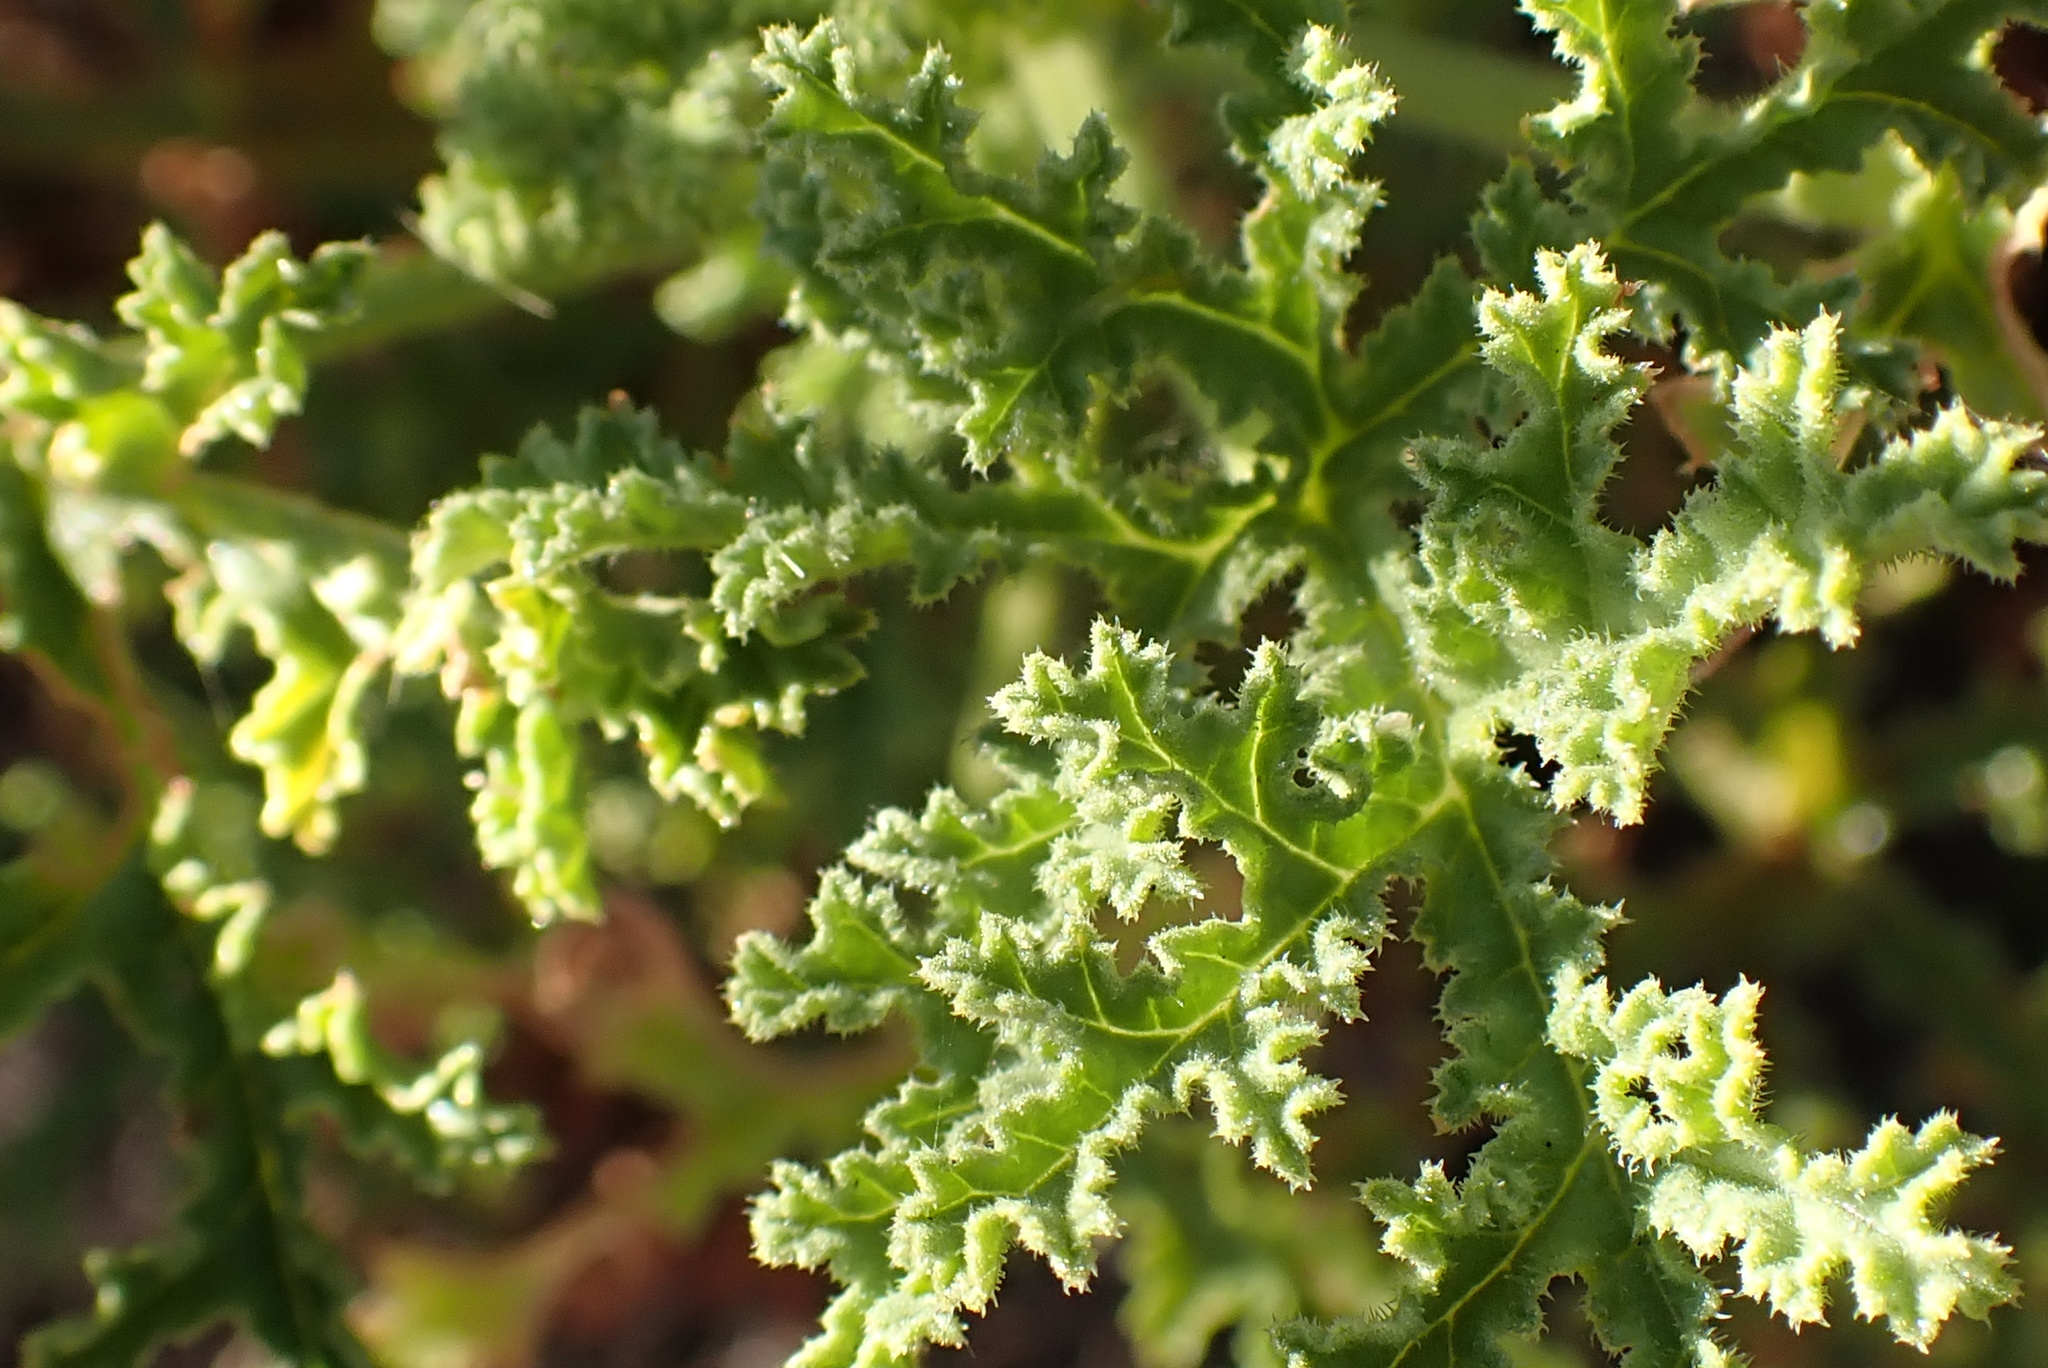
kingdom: Plantae
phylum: Tracheophyta
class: Magnoliopsida
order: Geraniales
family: Geraniaceae
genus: Pelargonium
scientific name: Pelargonium glutinosum
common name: Pheasant-foot geranium
